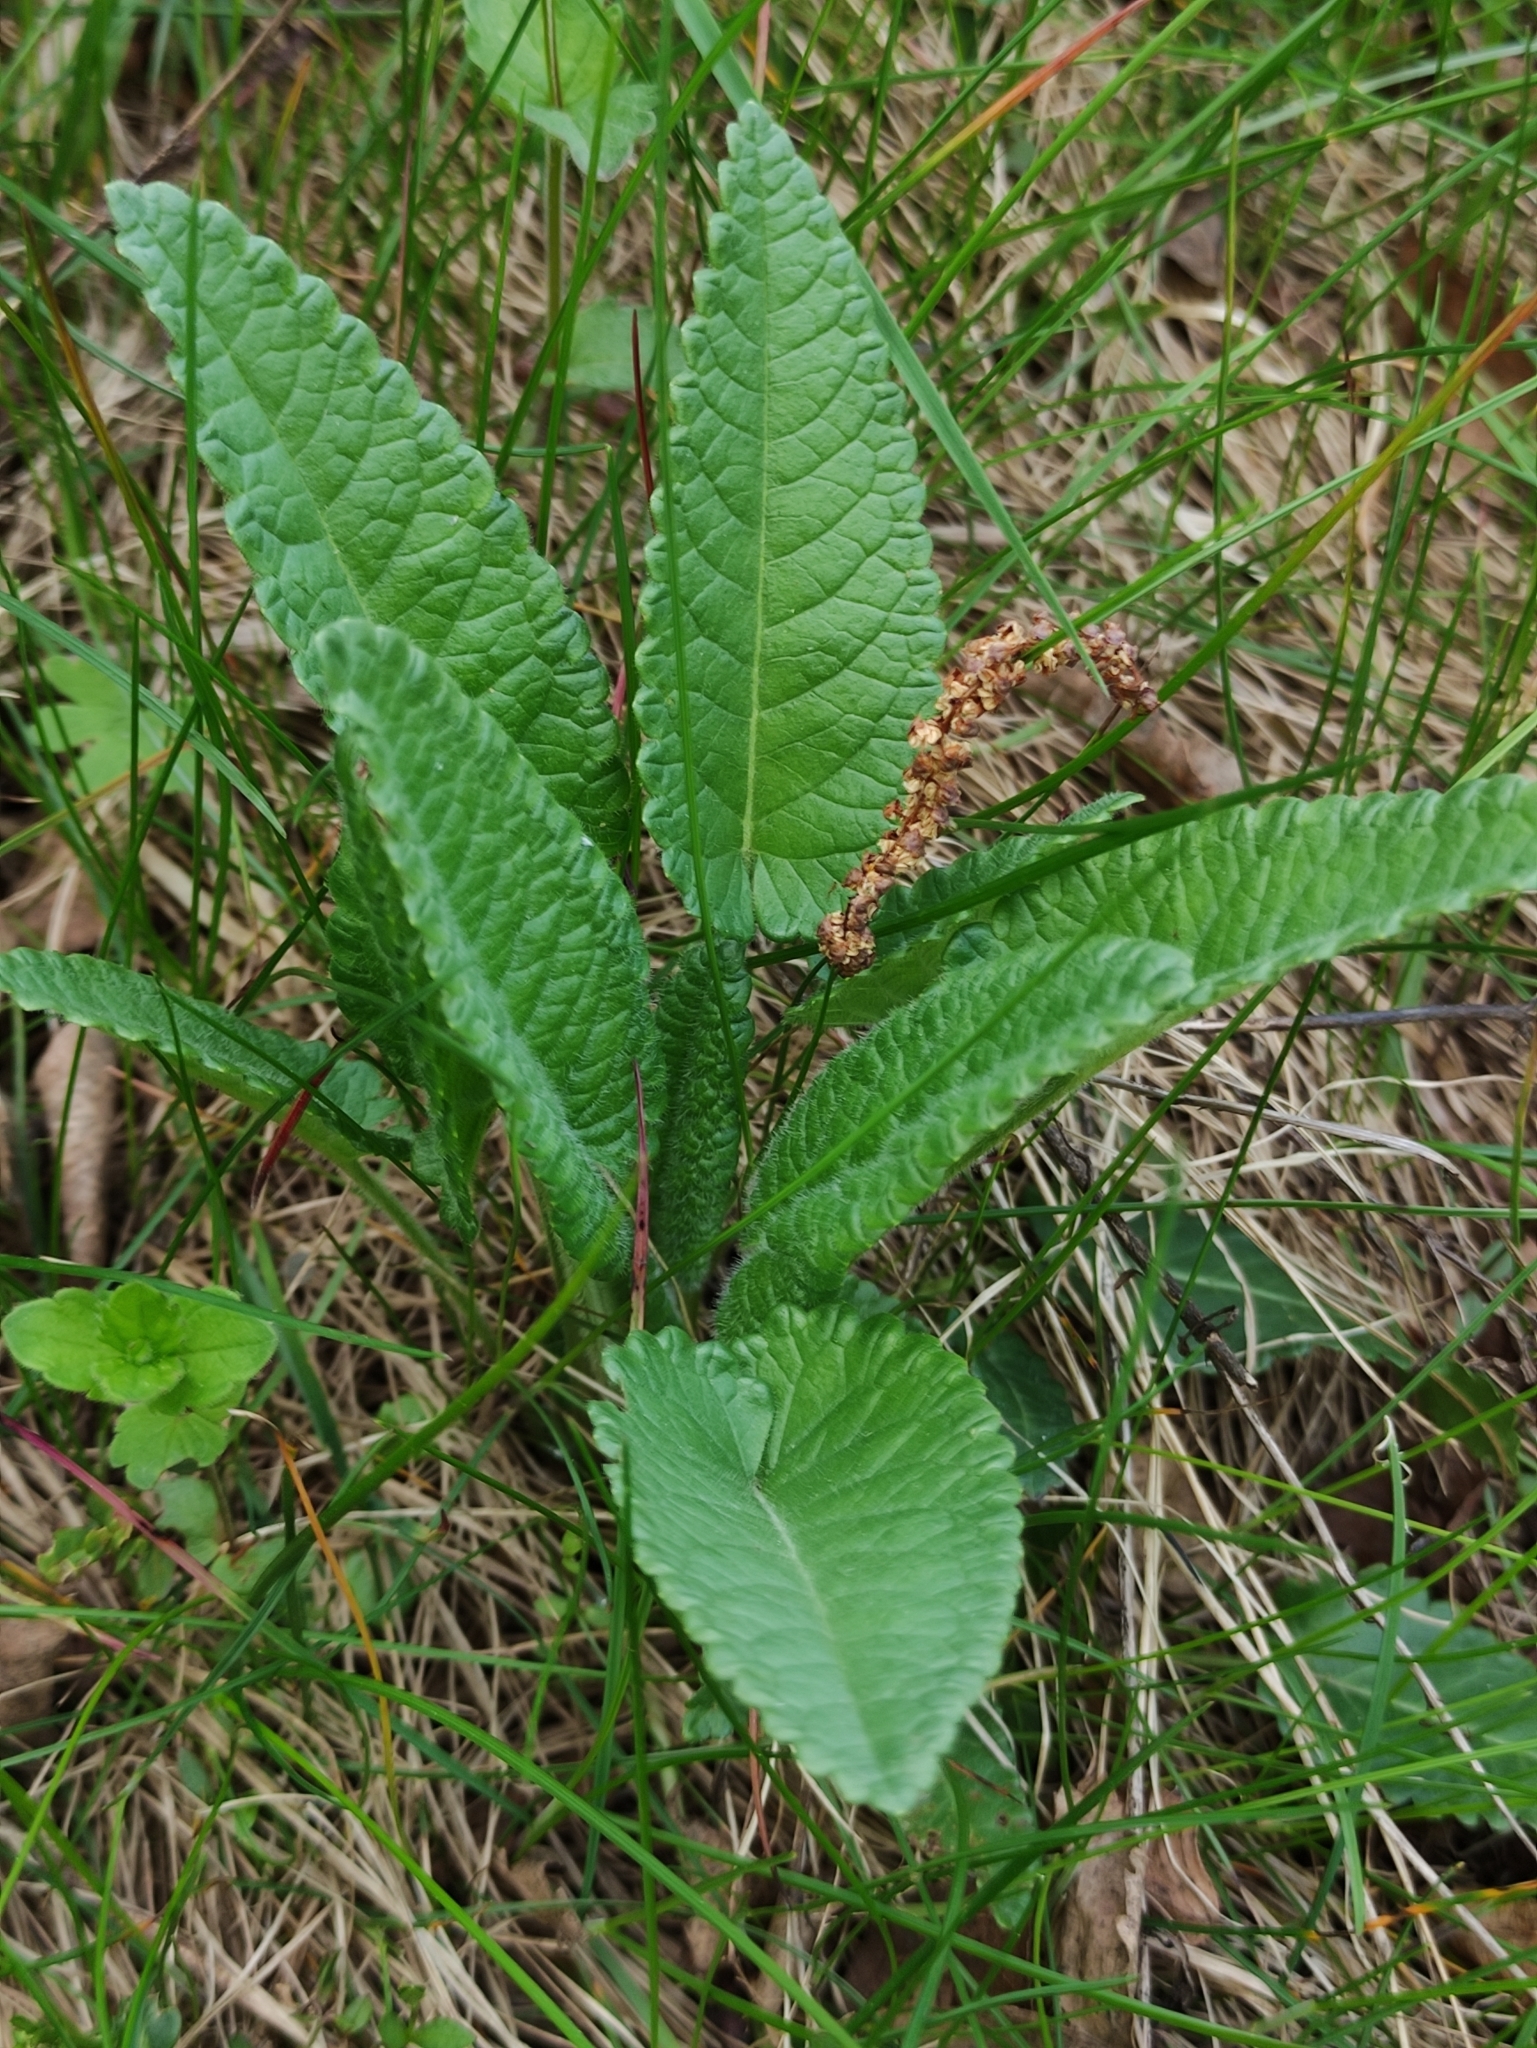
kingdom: Plantae
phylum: Tracheophyta
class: Magnoliopsida
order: Lamiales
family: Lamiaceae
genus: Betonica
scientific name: Betonica officinalis
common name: Bishop's-wort
